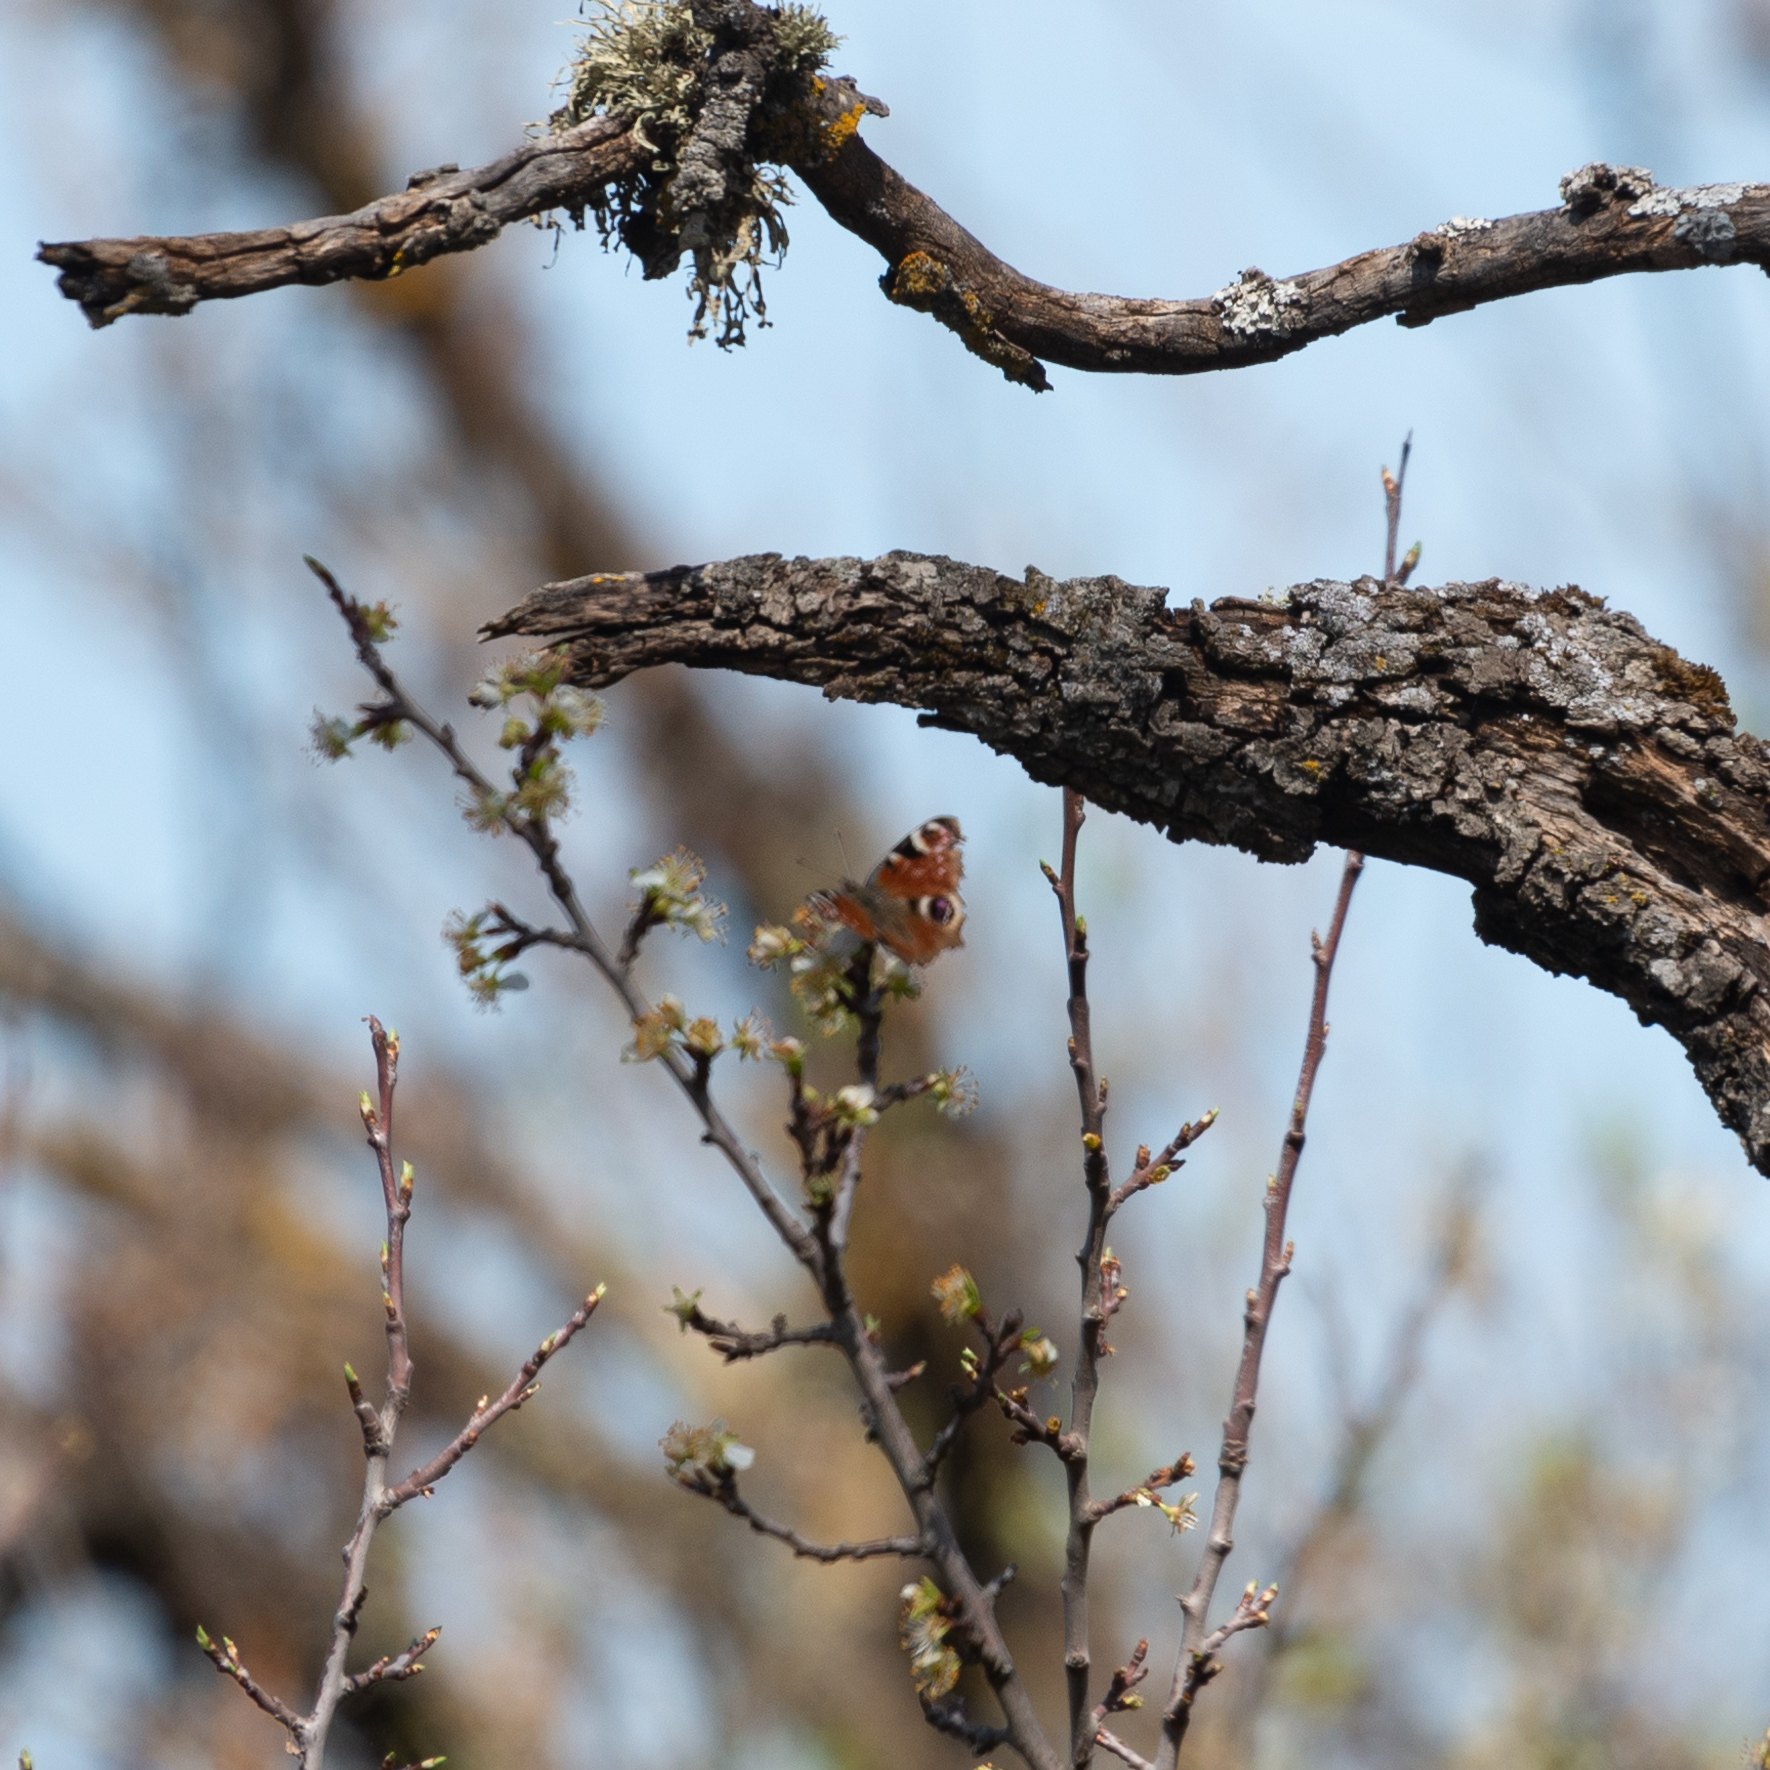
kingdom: Animalia
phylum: Arthropoda
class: Insecta
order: Lepidoptera
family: Nymphalidae
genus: Aglais
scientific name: Aglais io
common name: Peacock
